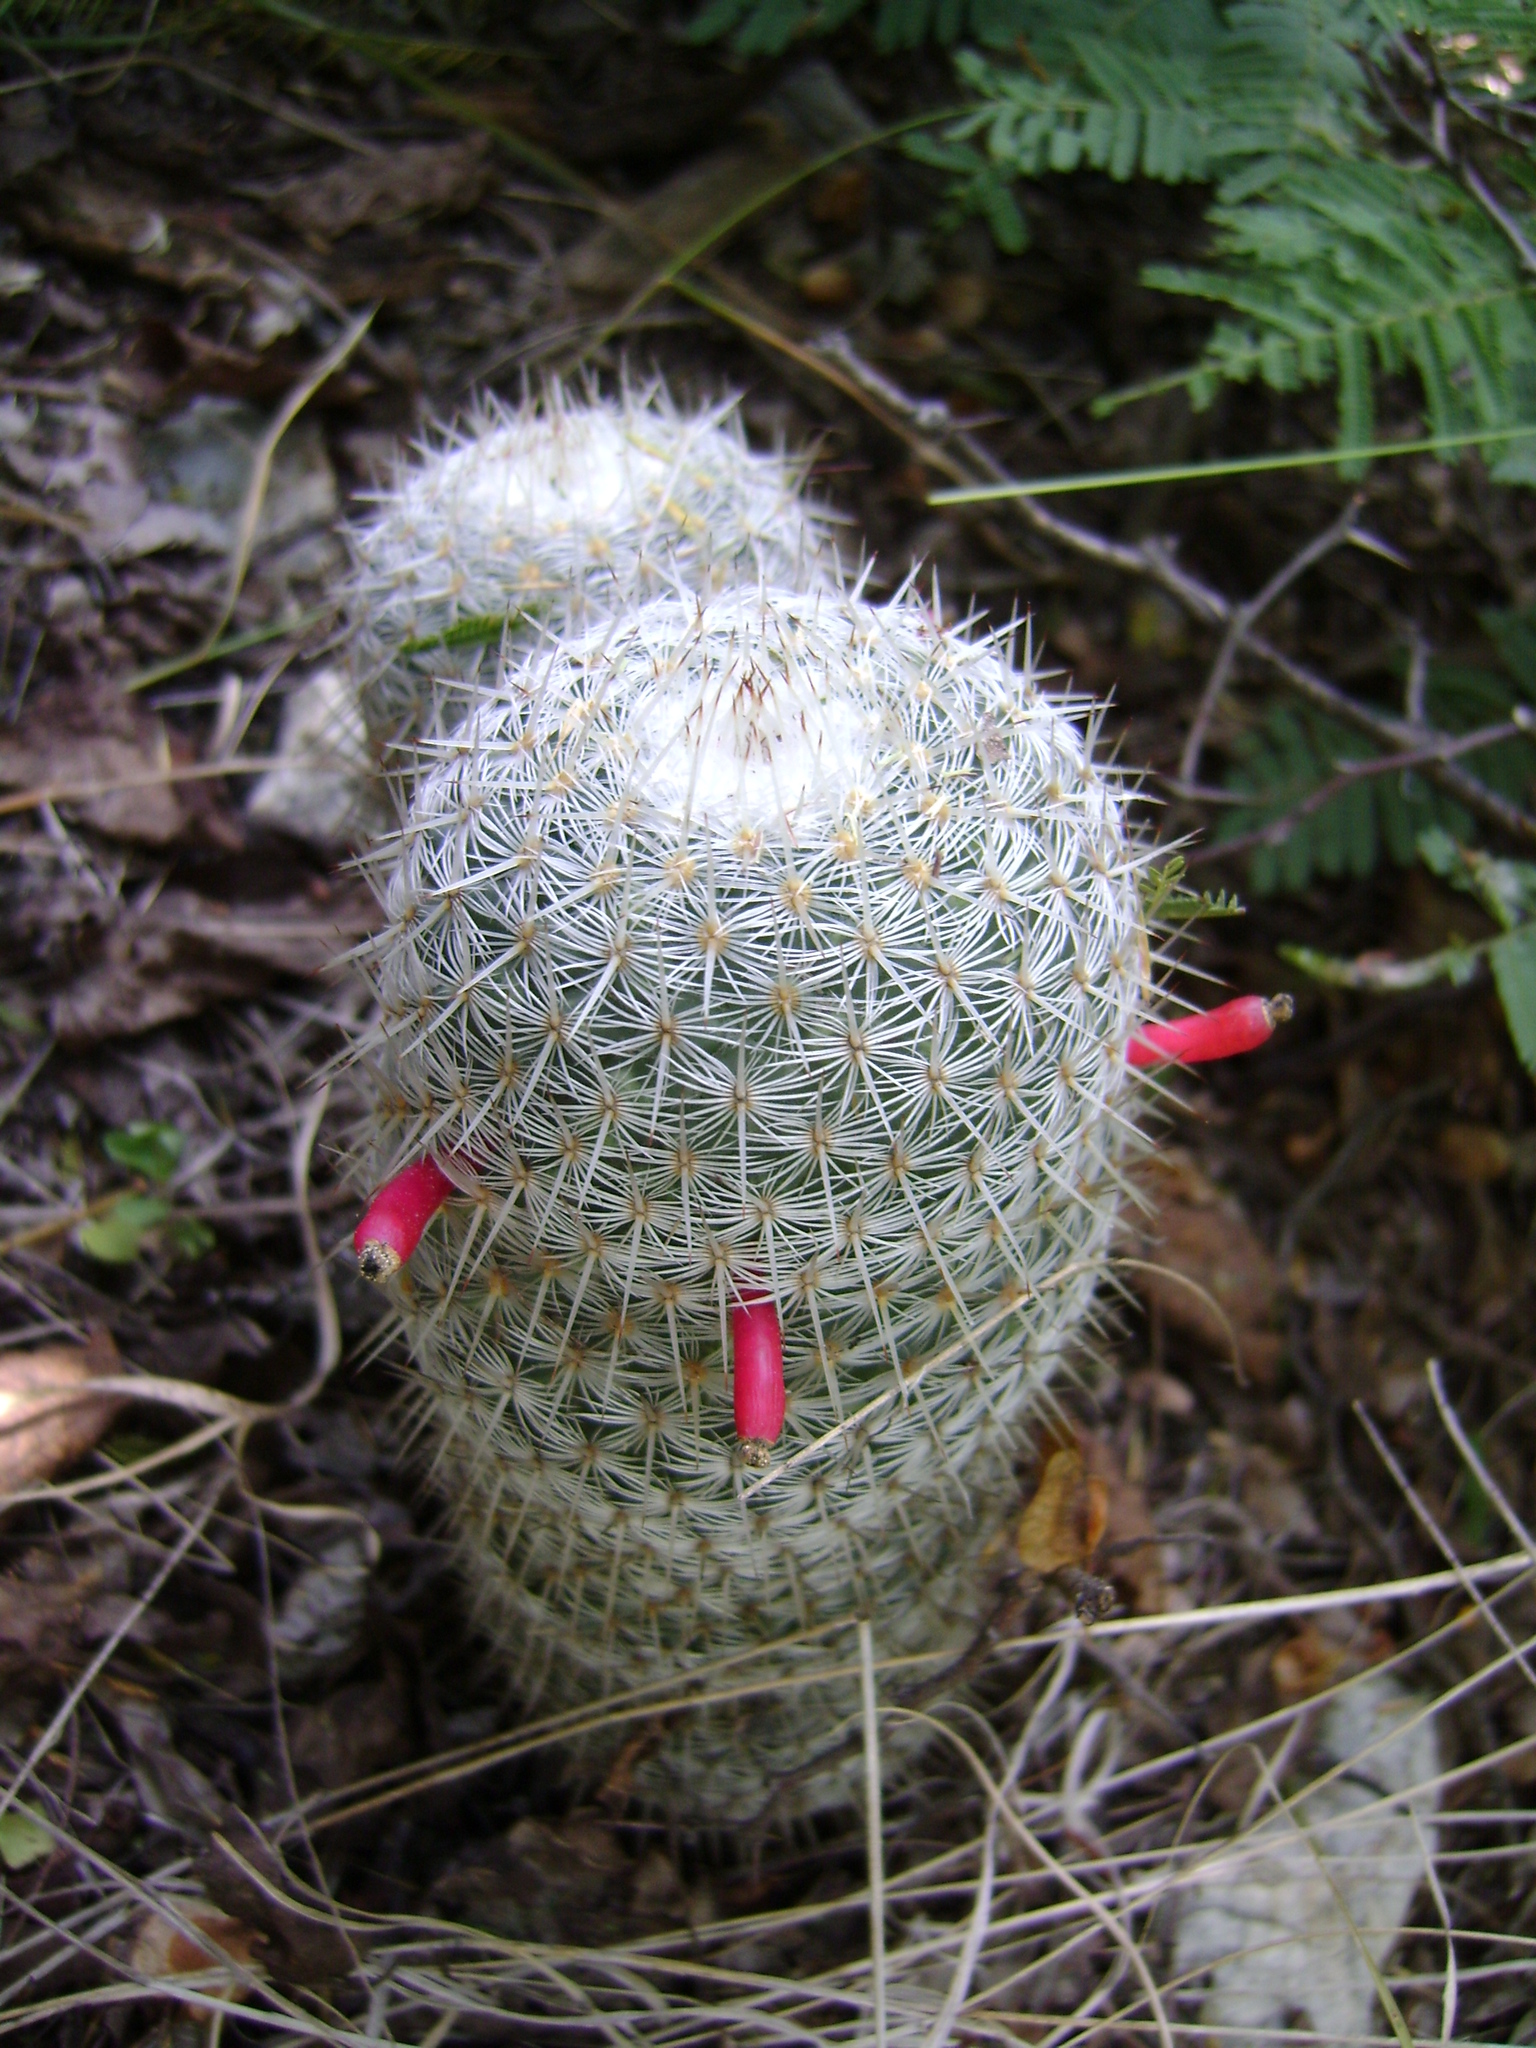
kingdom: Plantae
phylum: Tracheophyta
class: Magnoliopsida
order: Caryophyllales
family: Cactaceae
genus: Mammillaria
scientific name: Mammillaria haageana
